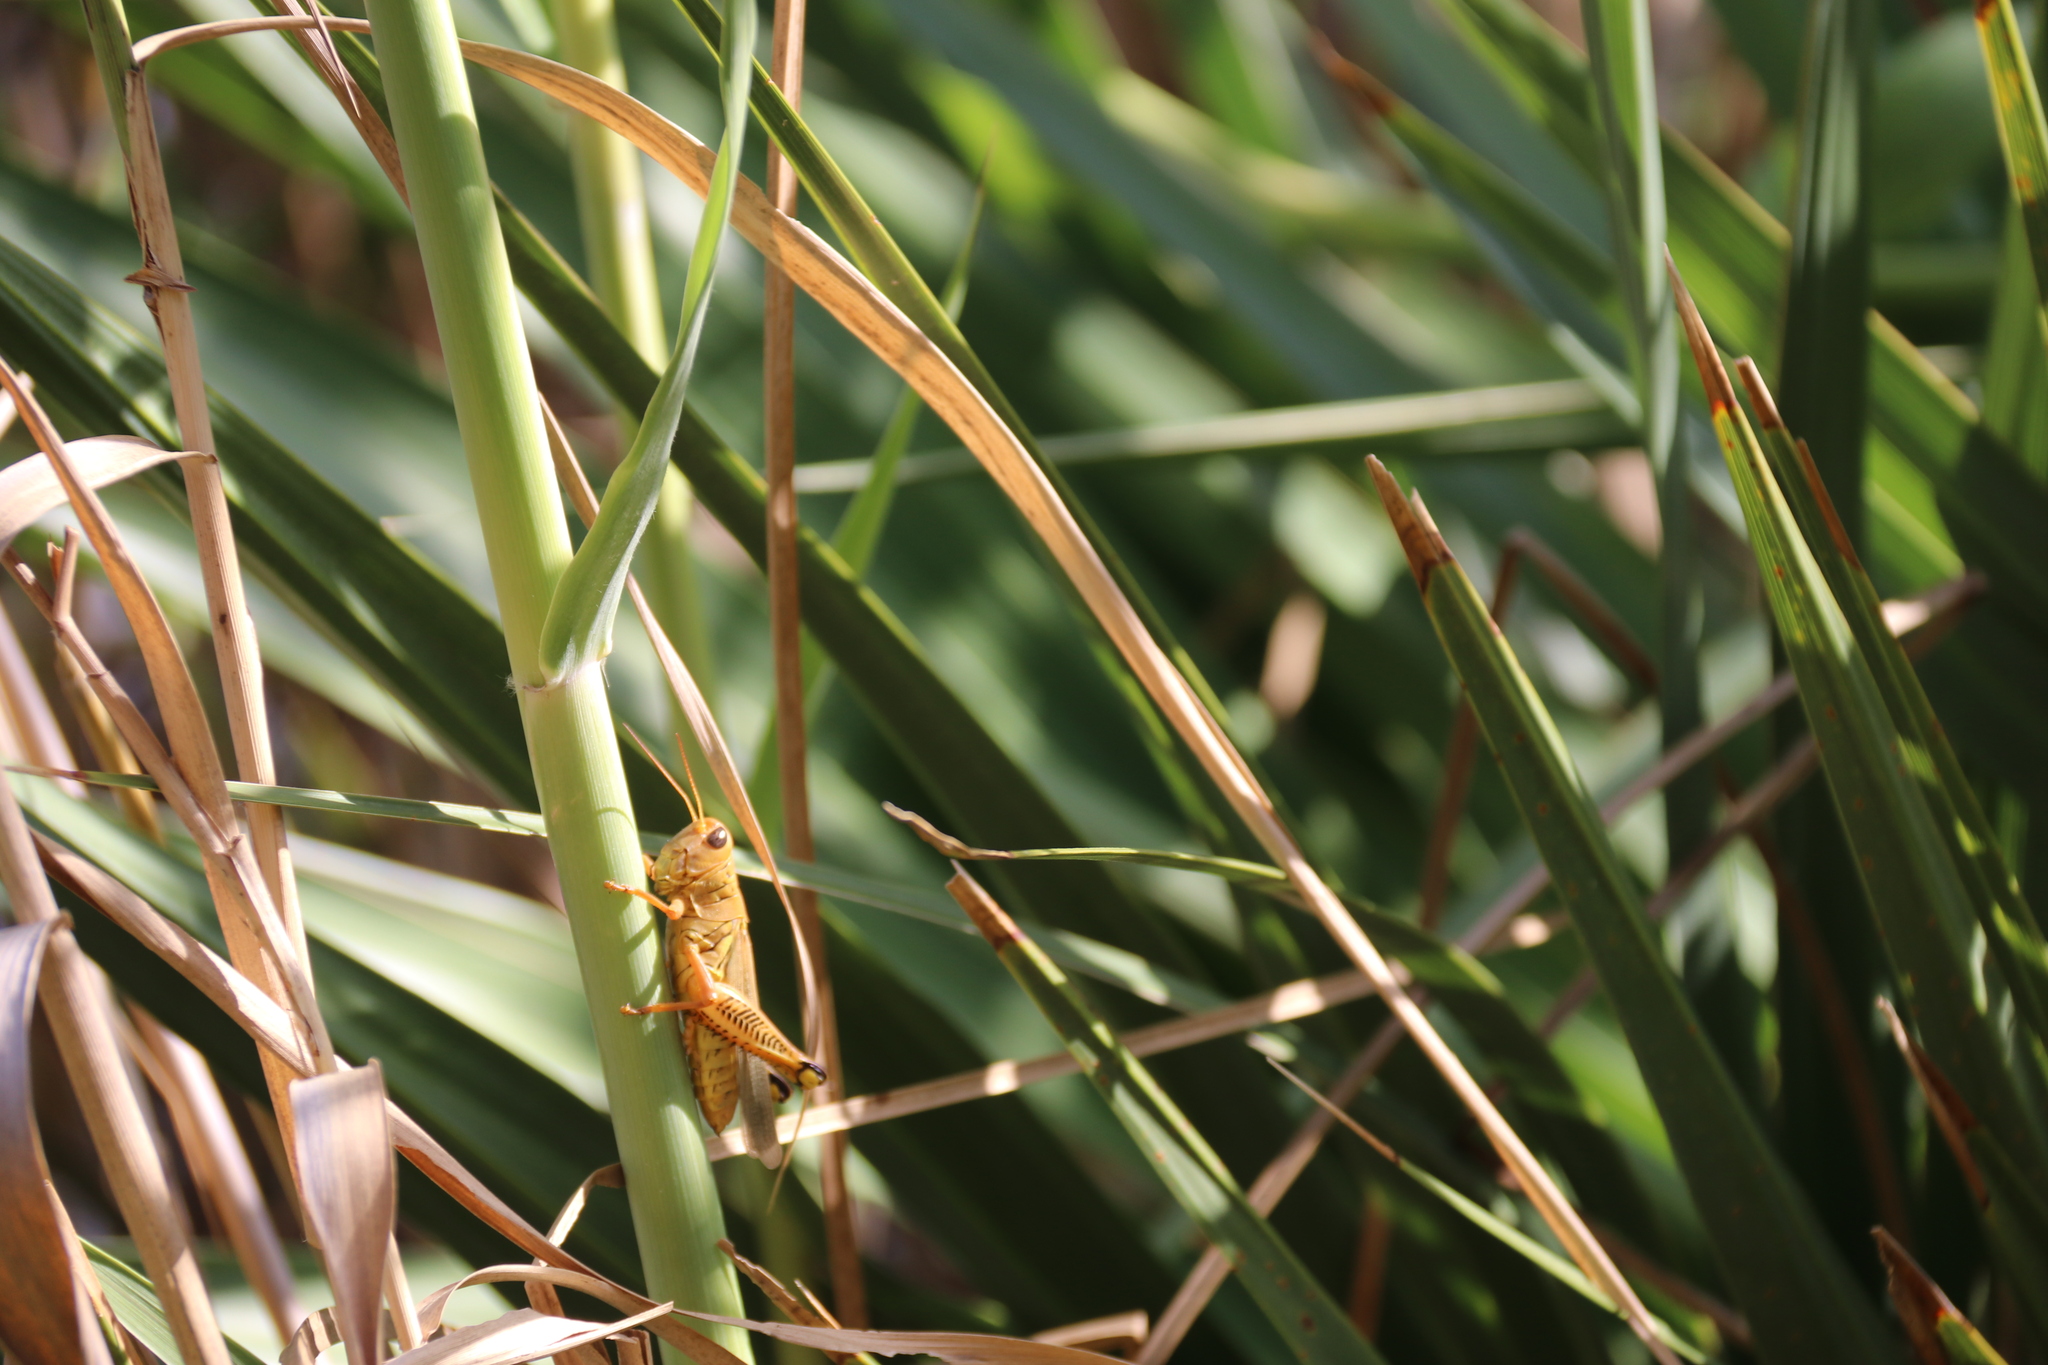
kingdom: Animalia
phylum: Arthropoda
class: Insecta
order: Orthoptera
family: Acrididae
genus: Melanoplus
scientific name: Melanoplus differentialis
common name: Differential grasshopper
